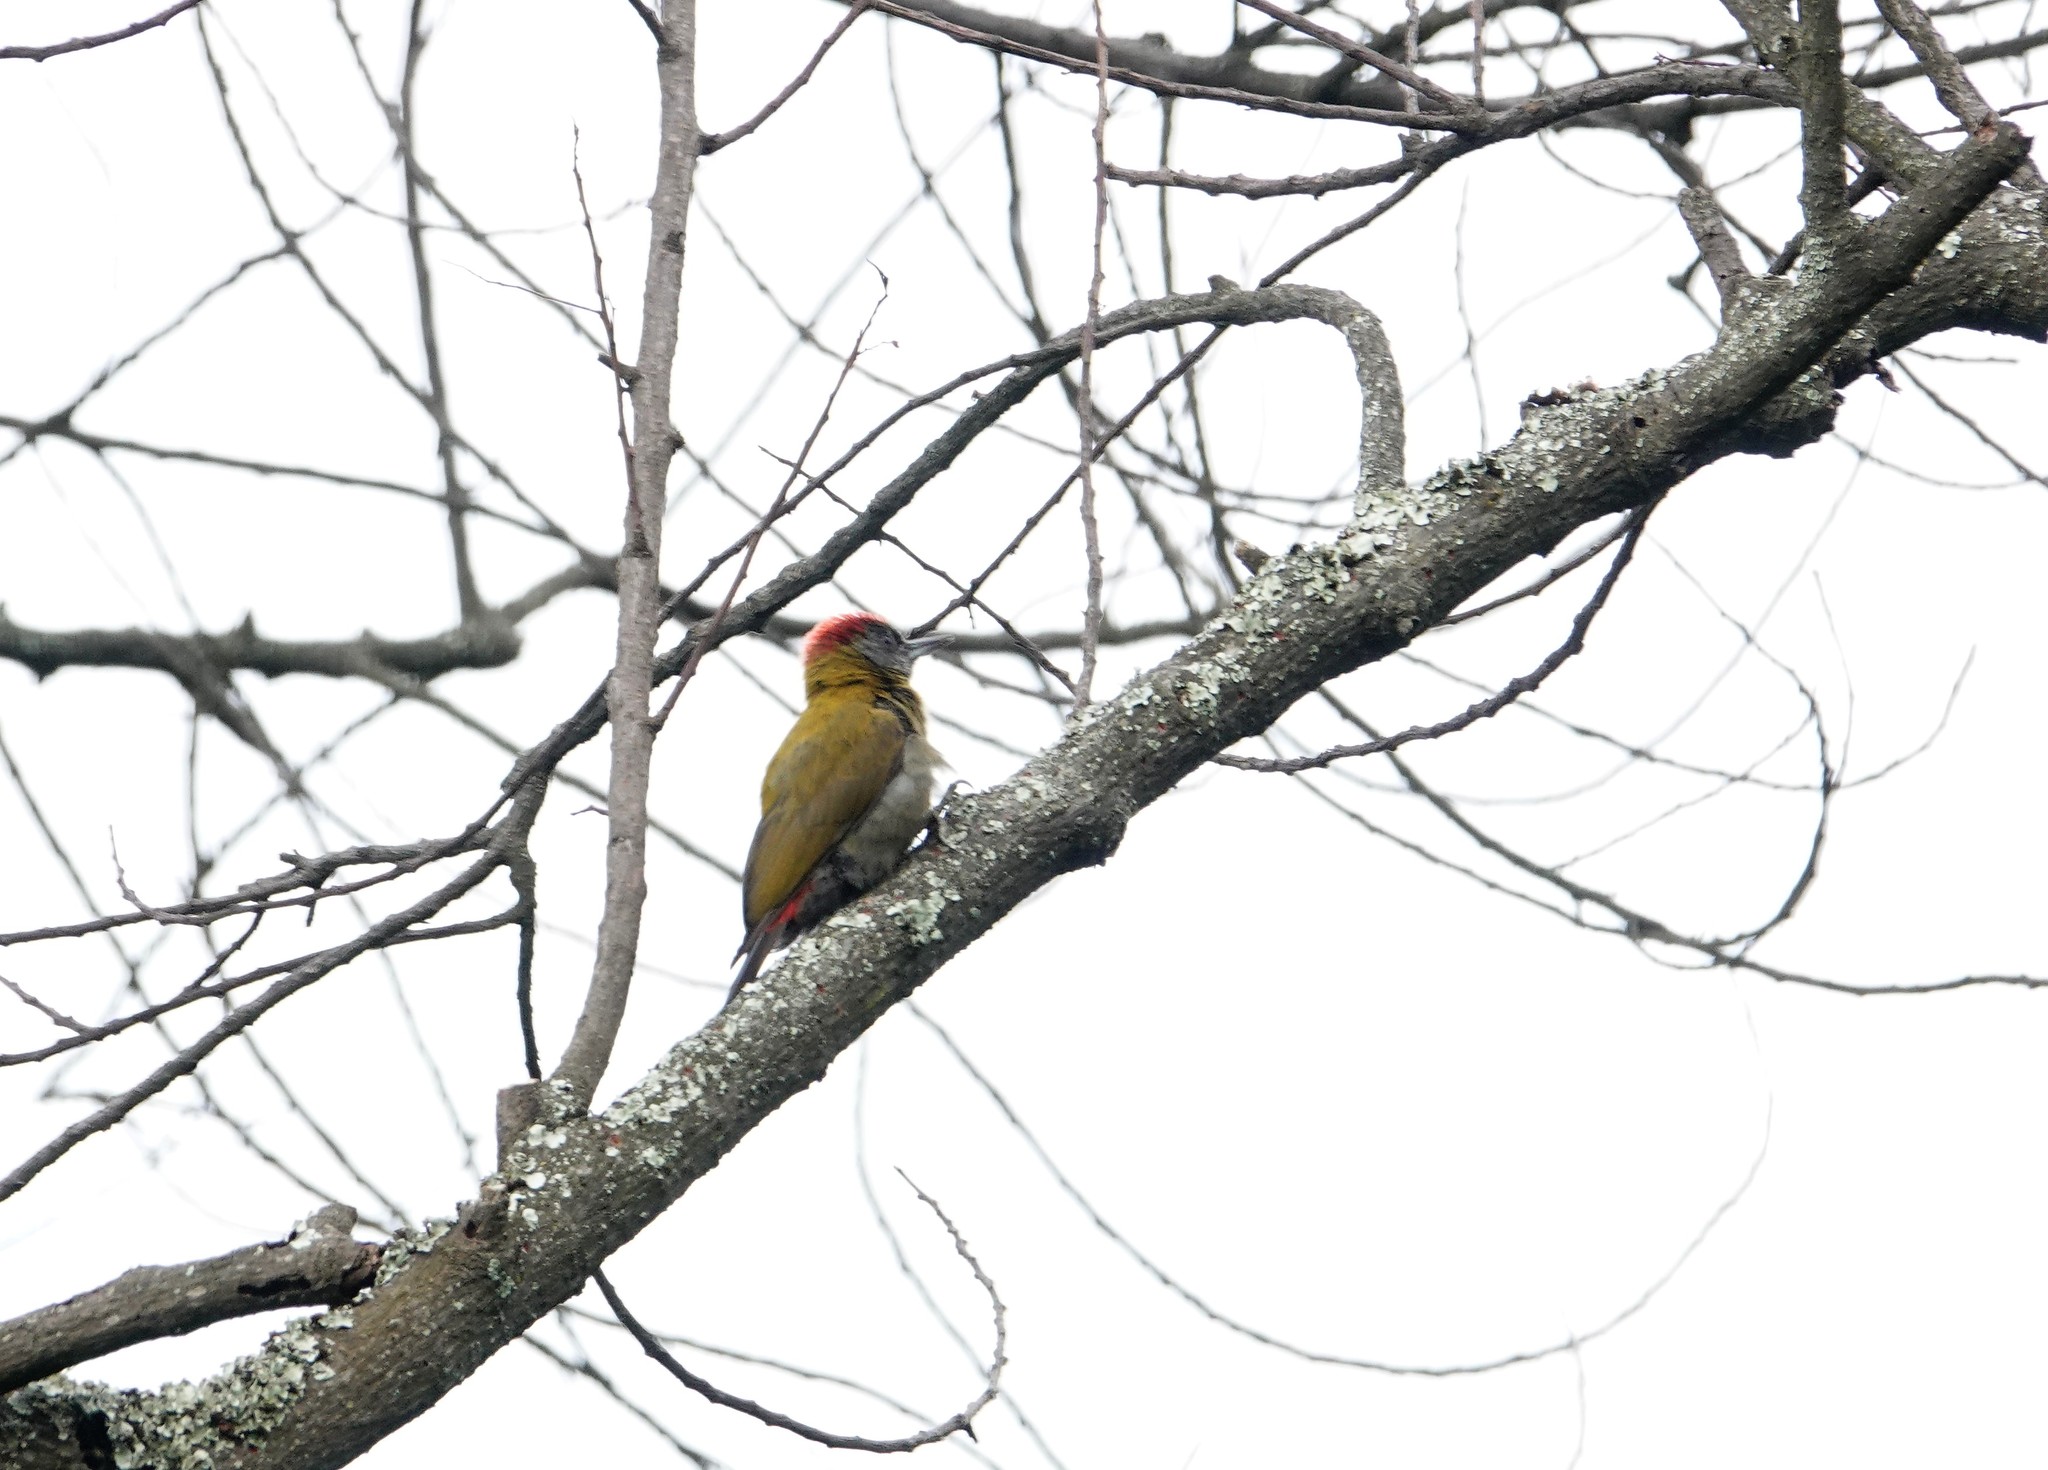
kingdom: Animalia
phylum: Chordata
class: Aves
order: Piciformes
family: Picidae
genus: Dendropicos
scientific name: Dendropicos griseocephalus
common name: Olive woodpecker
